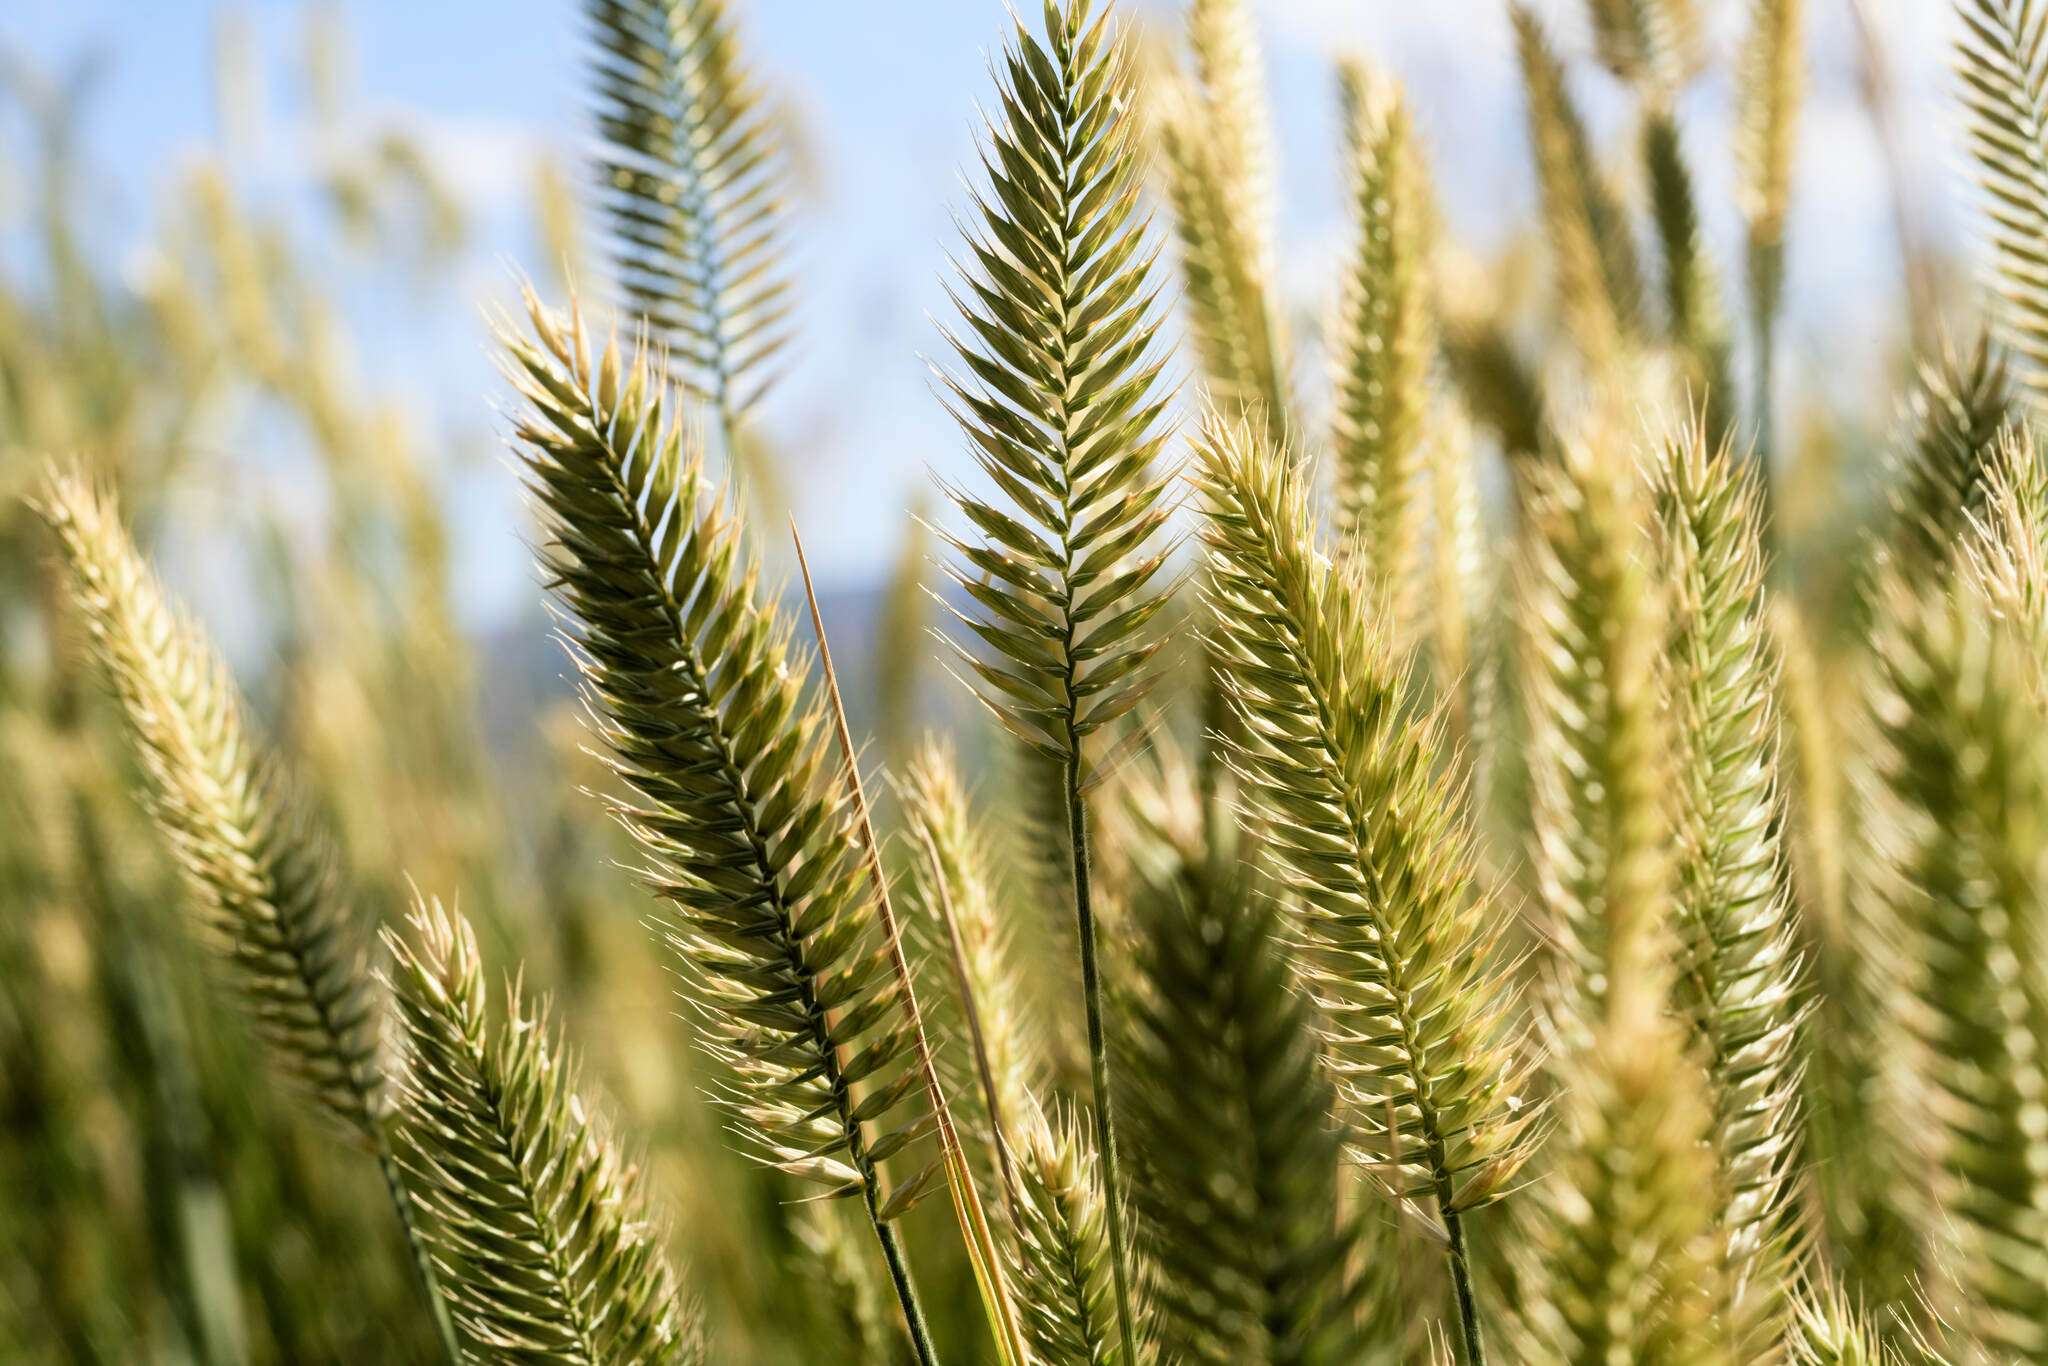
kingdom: Plantae
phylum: Tracheophyta
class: Liliopsida
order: Poales
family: Poaceae
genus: Agropyron
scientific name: Agropyron cristatum
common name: Crested wheatgrass
